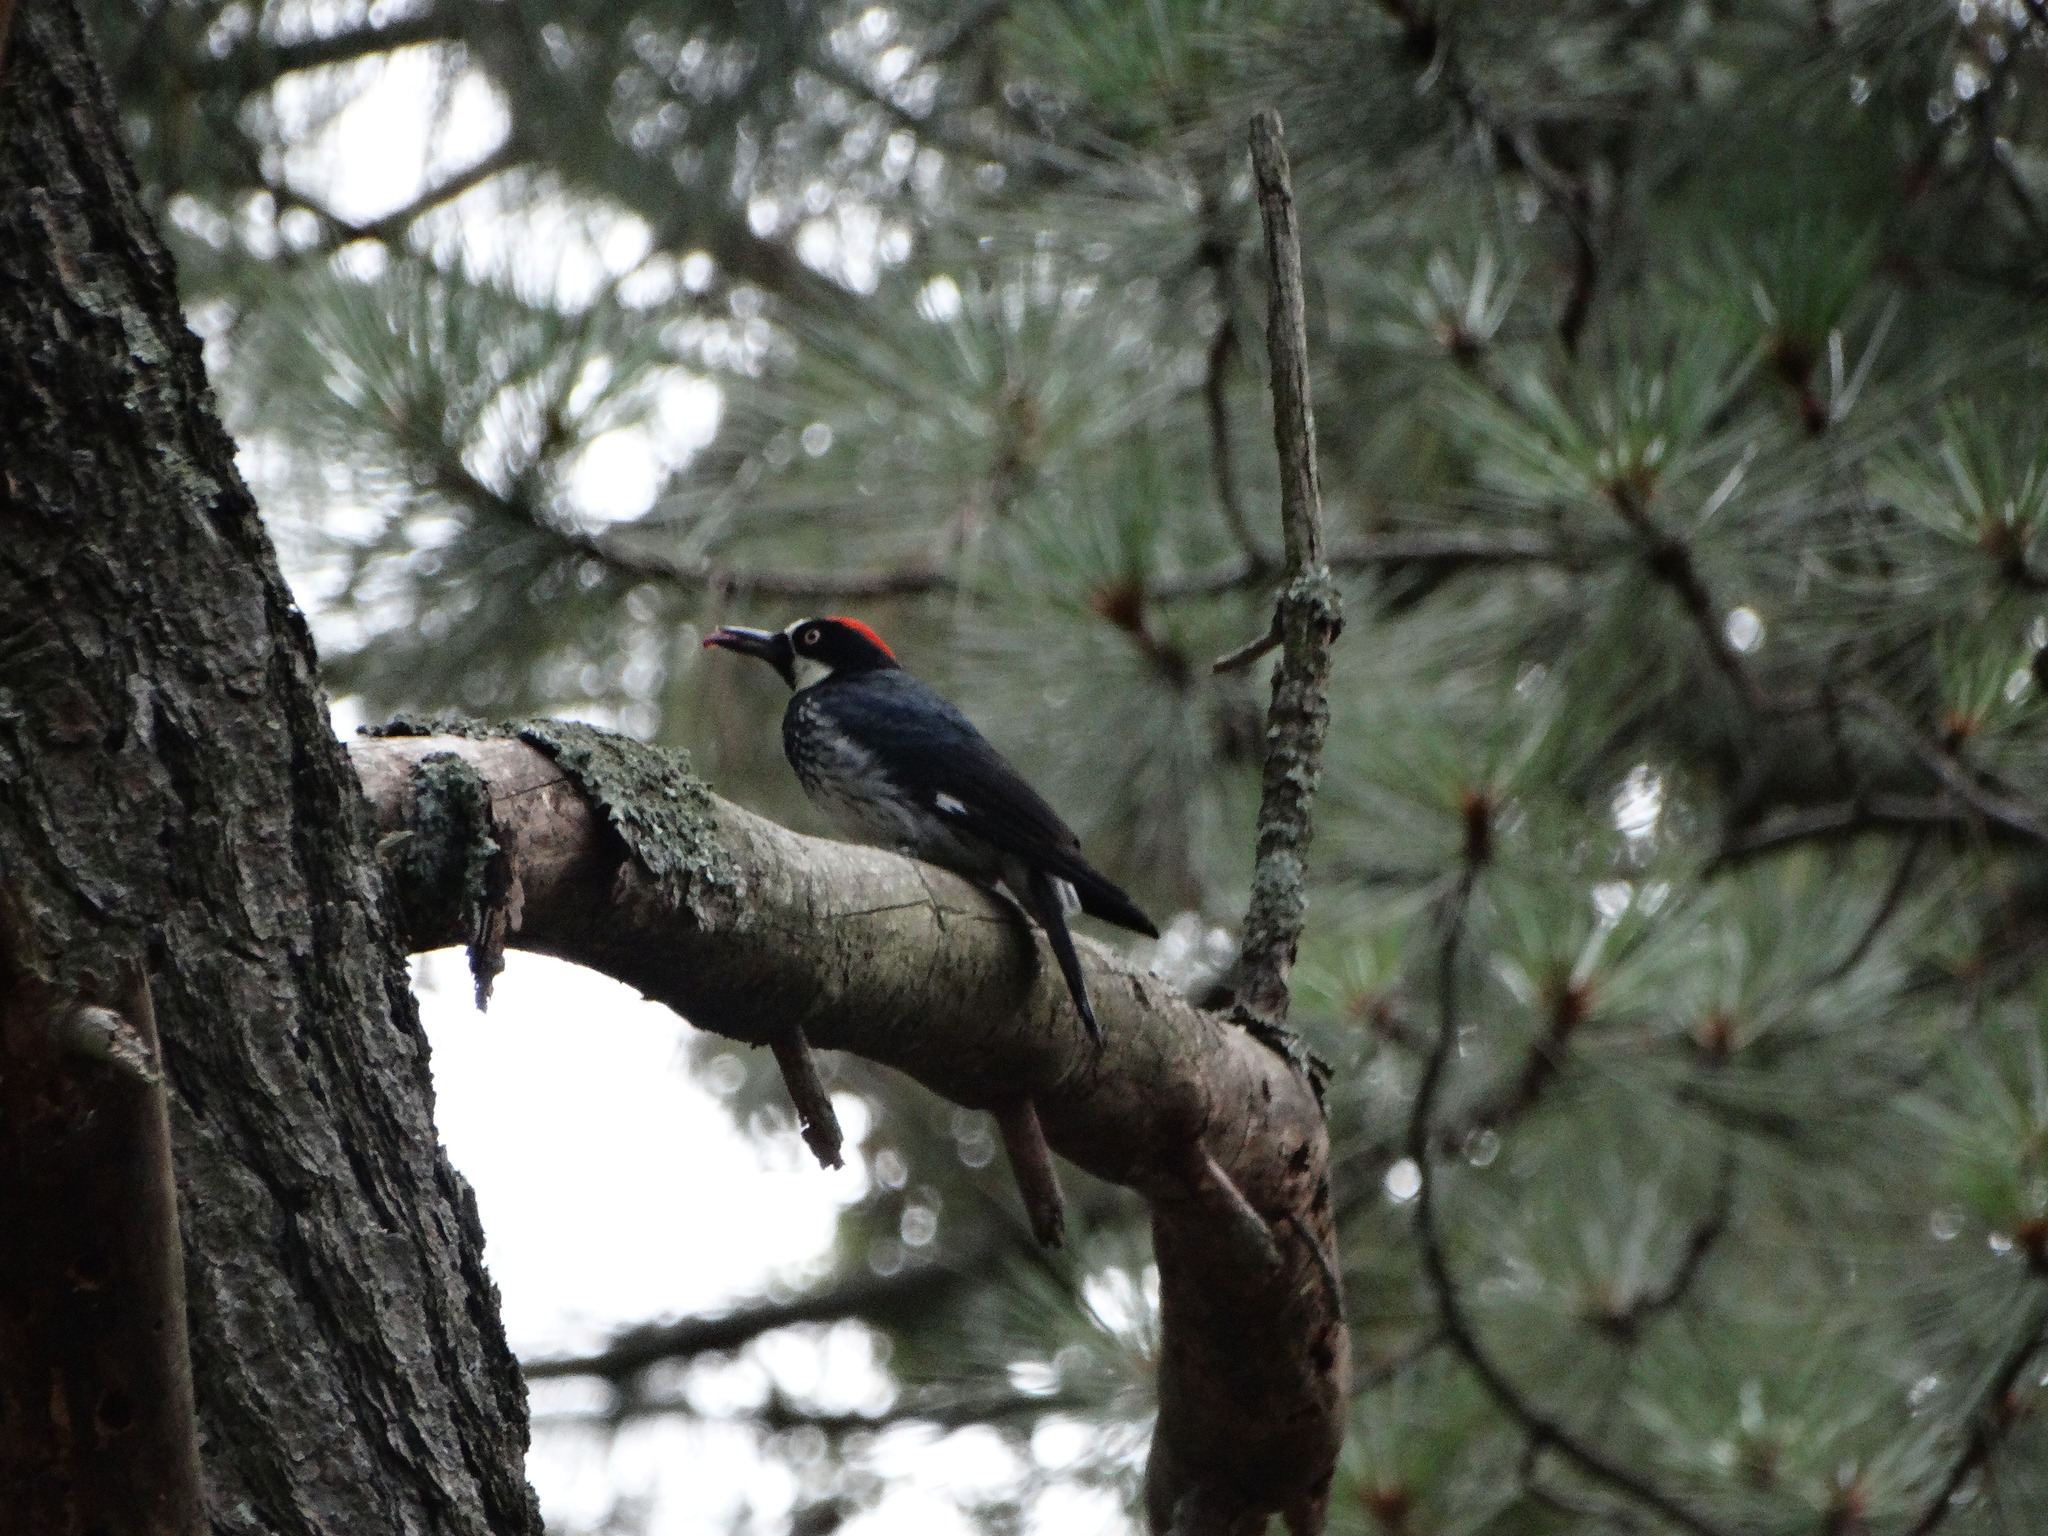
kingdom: Animalia
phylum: Chordata
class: Aves
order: Piciformes
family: Picidae
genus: Melanerpes
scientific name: Melanerpes formicivorus
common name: Acorn woodpecker
